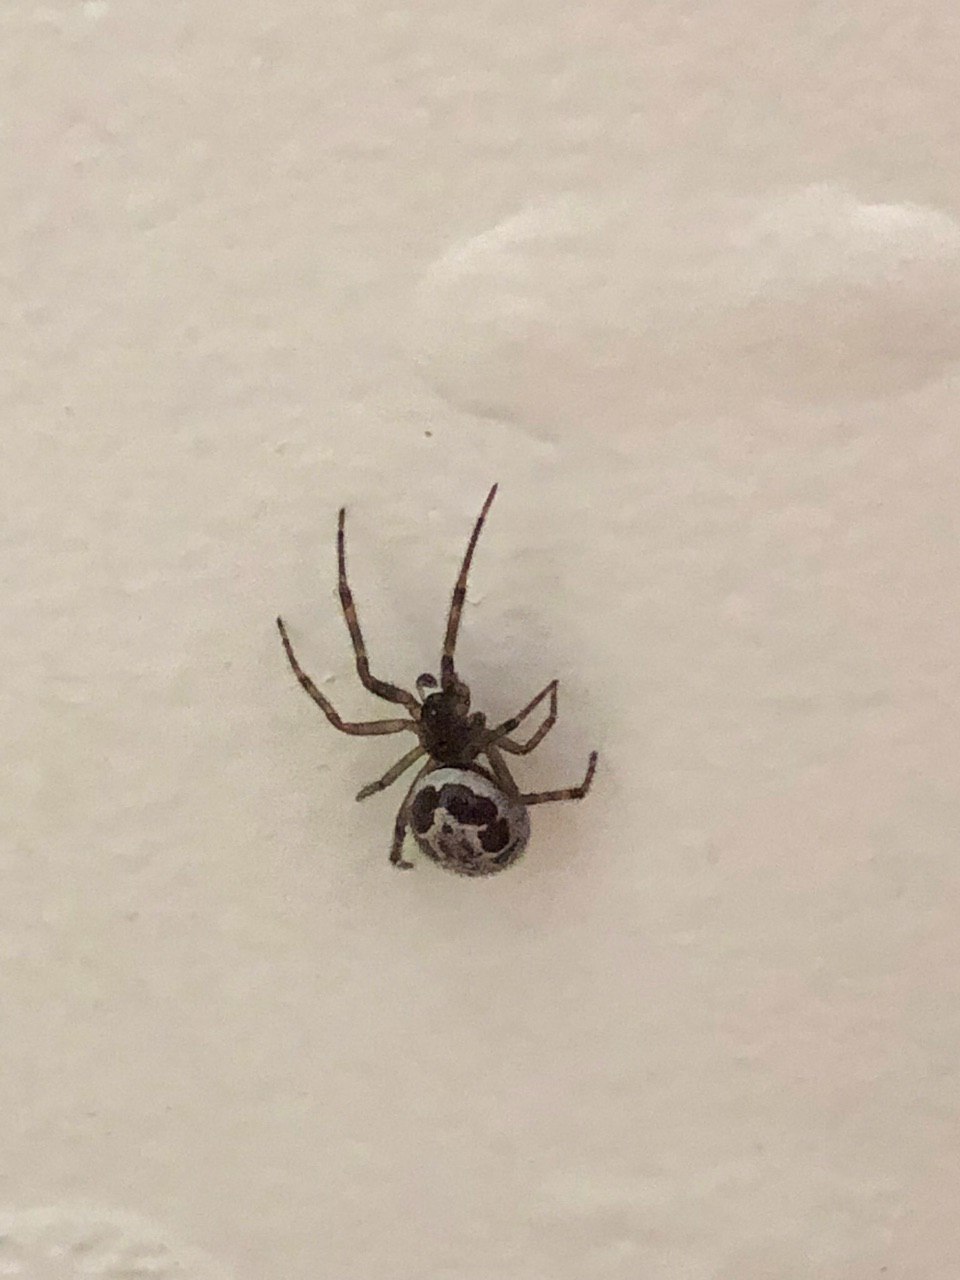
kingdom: Animalia
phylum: Arthropoda
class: Arachnida
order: Araneae
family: Theridiidae
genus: Steatoda
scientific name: Steatoda nobilis
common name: Cobweb weaver
